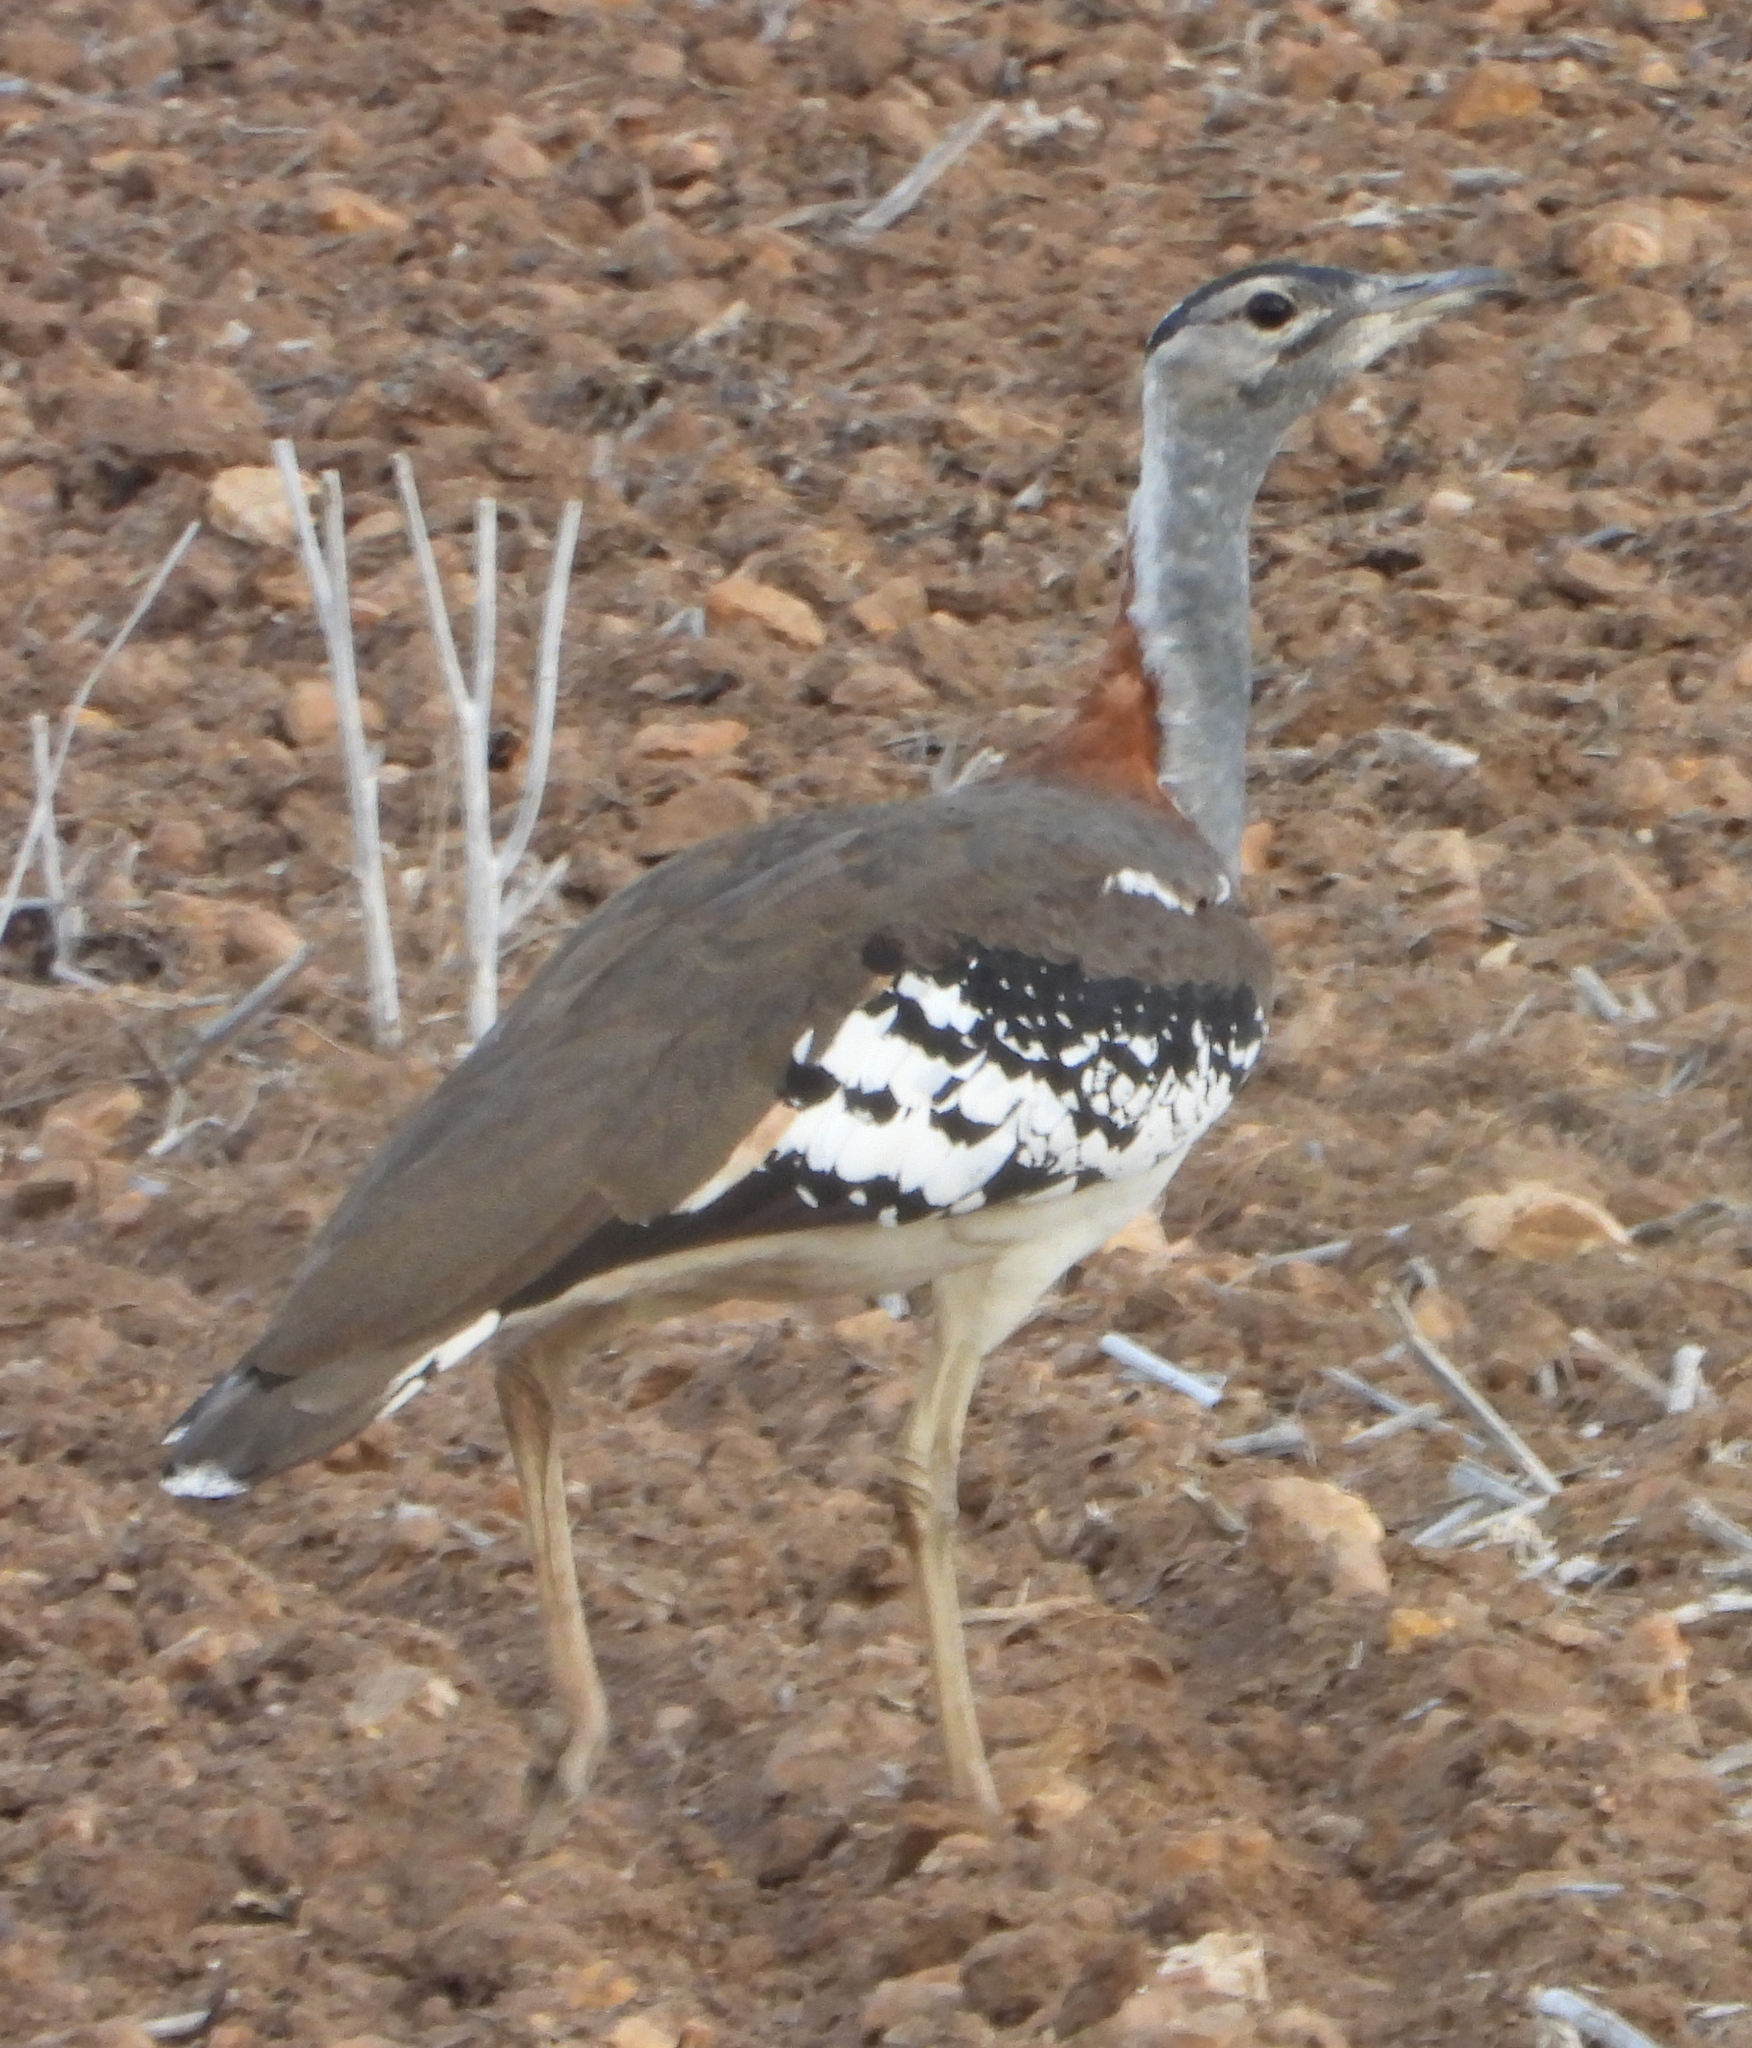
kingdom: Animalia
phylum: Chordata
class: Aves
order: Otidiformes
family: Otididae
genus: Neotis
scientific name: Neotis denhami
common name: Denham's bustard
